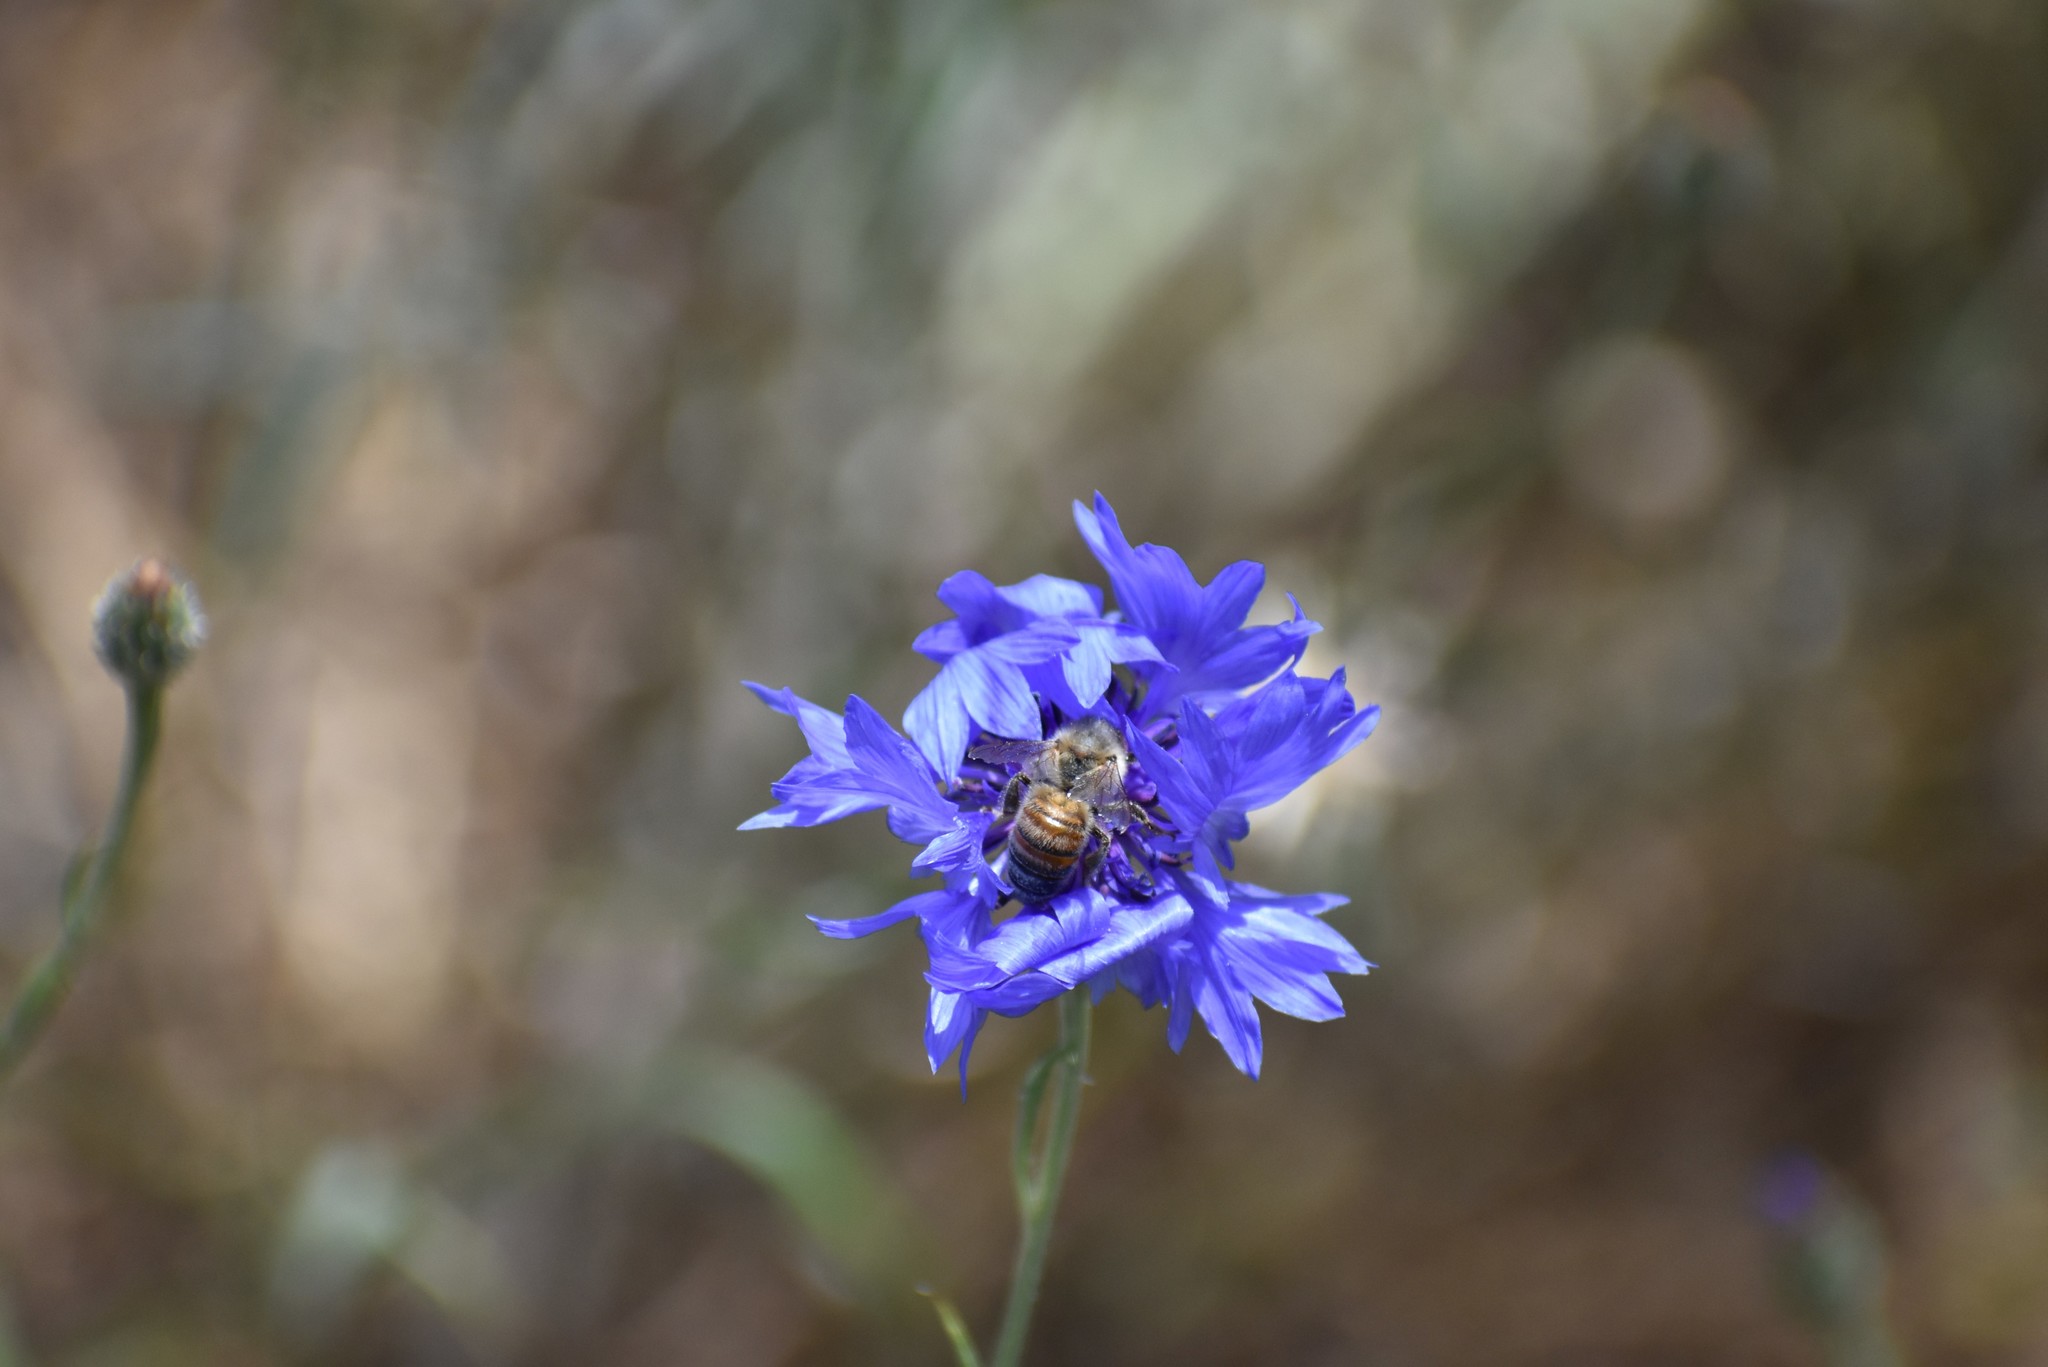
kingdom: Animalia
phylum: Arthropoda
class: Insecta
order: Hymenoptera
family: Apidae
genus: Apis
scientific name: Apis mellifera
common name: Honey bee
